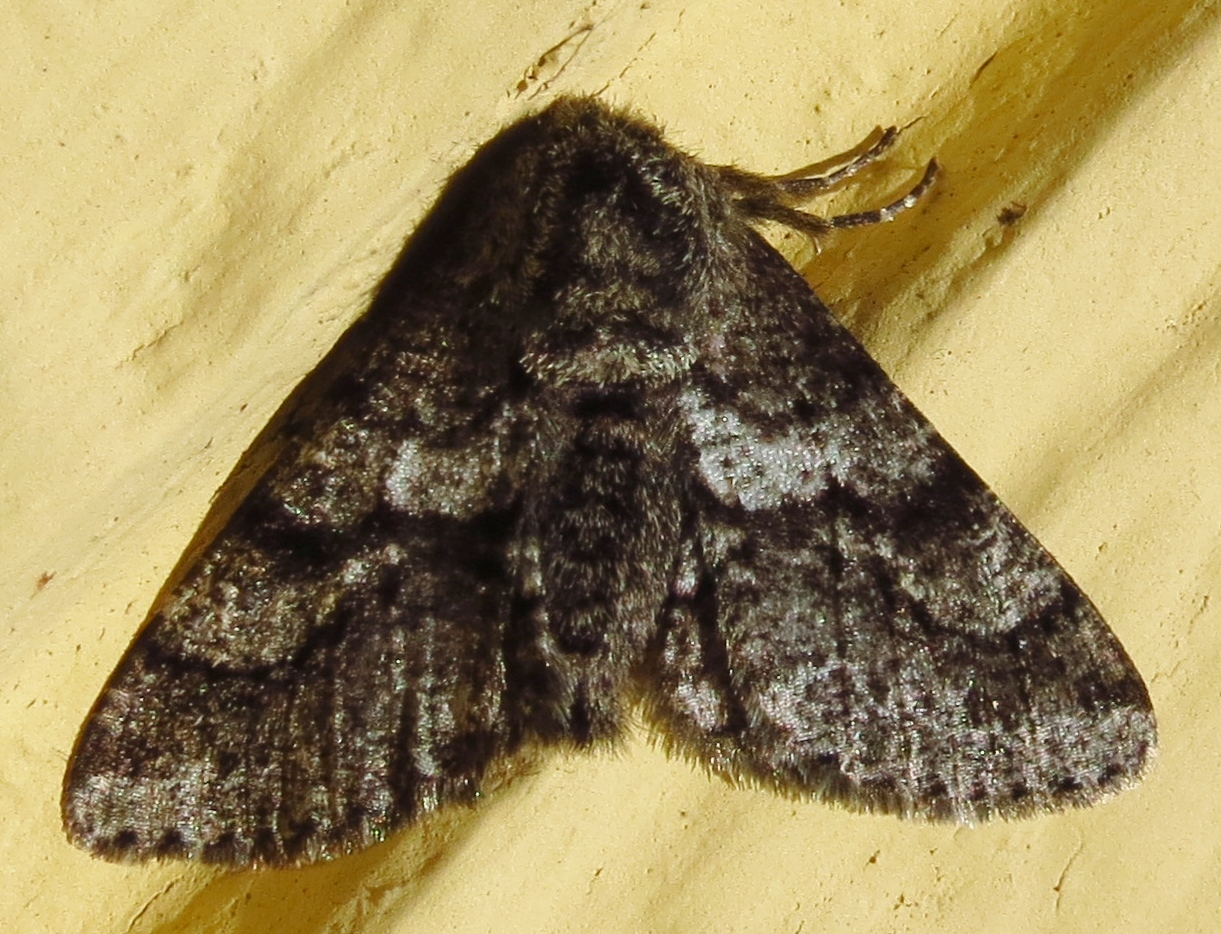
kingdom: Animalia
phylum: Arthropoda
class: Insecta
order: Lepidoptera
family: Geometridae
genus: Lycia
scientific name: Lycia ypsilon
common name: Wooly gray
